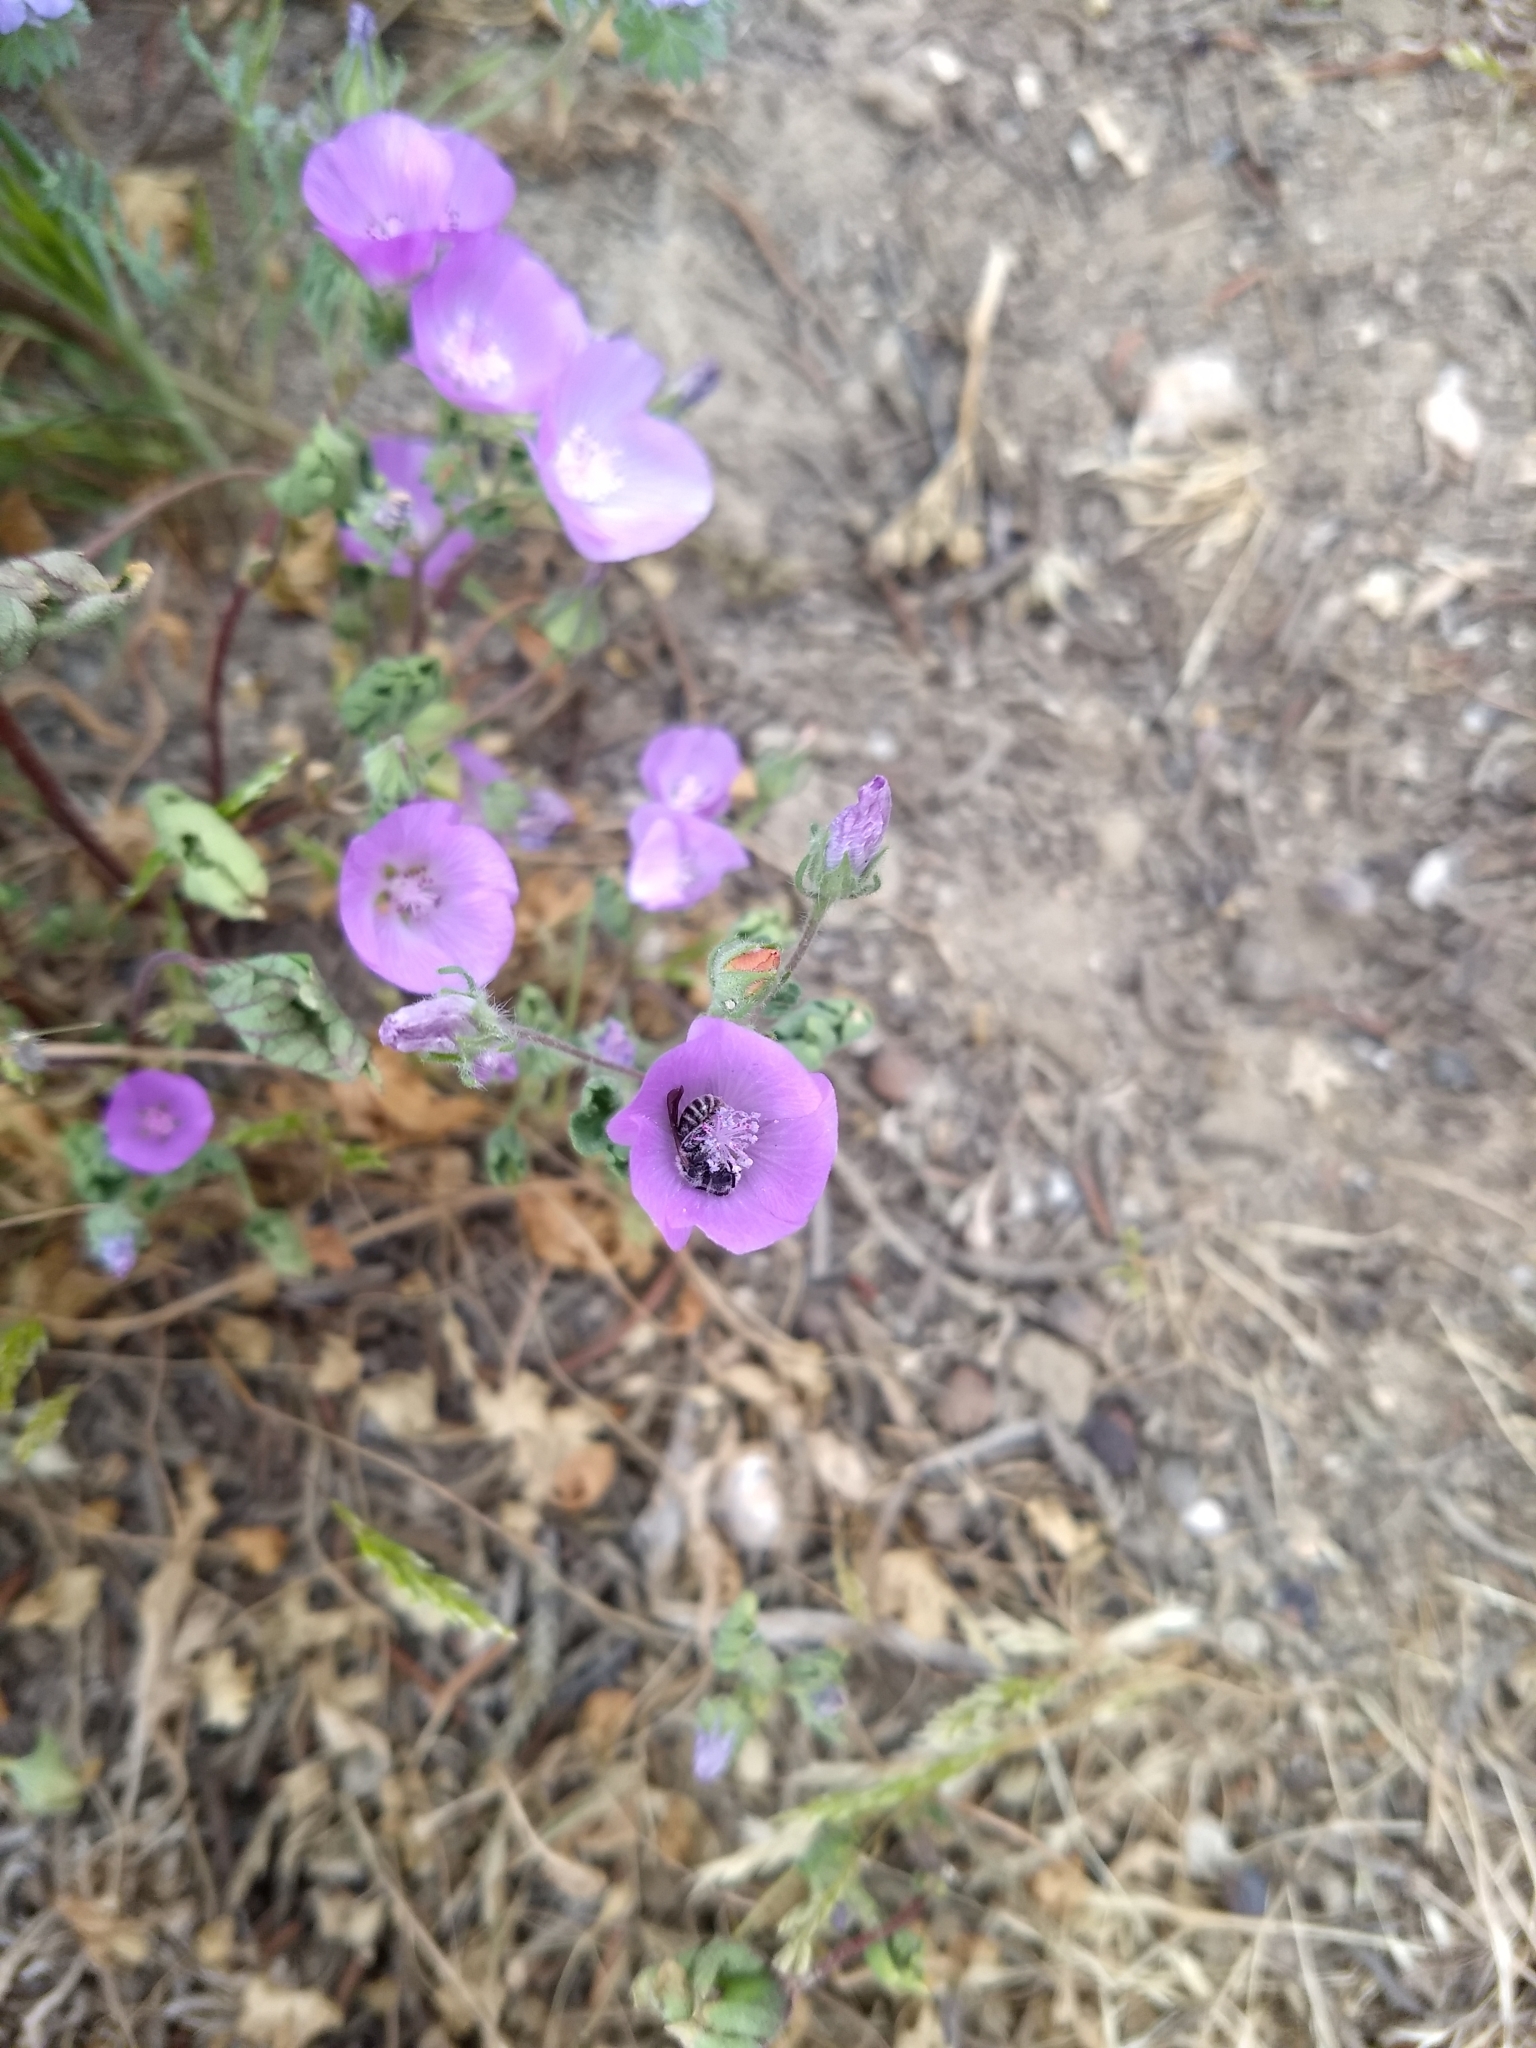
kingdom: Plantae
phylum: Tracheophyta
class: Magnoliopsida
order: Malvales
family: Malvaceae
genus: Eremalche
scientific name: Eremalche parryi
